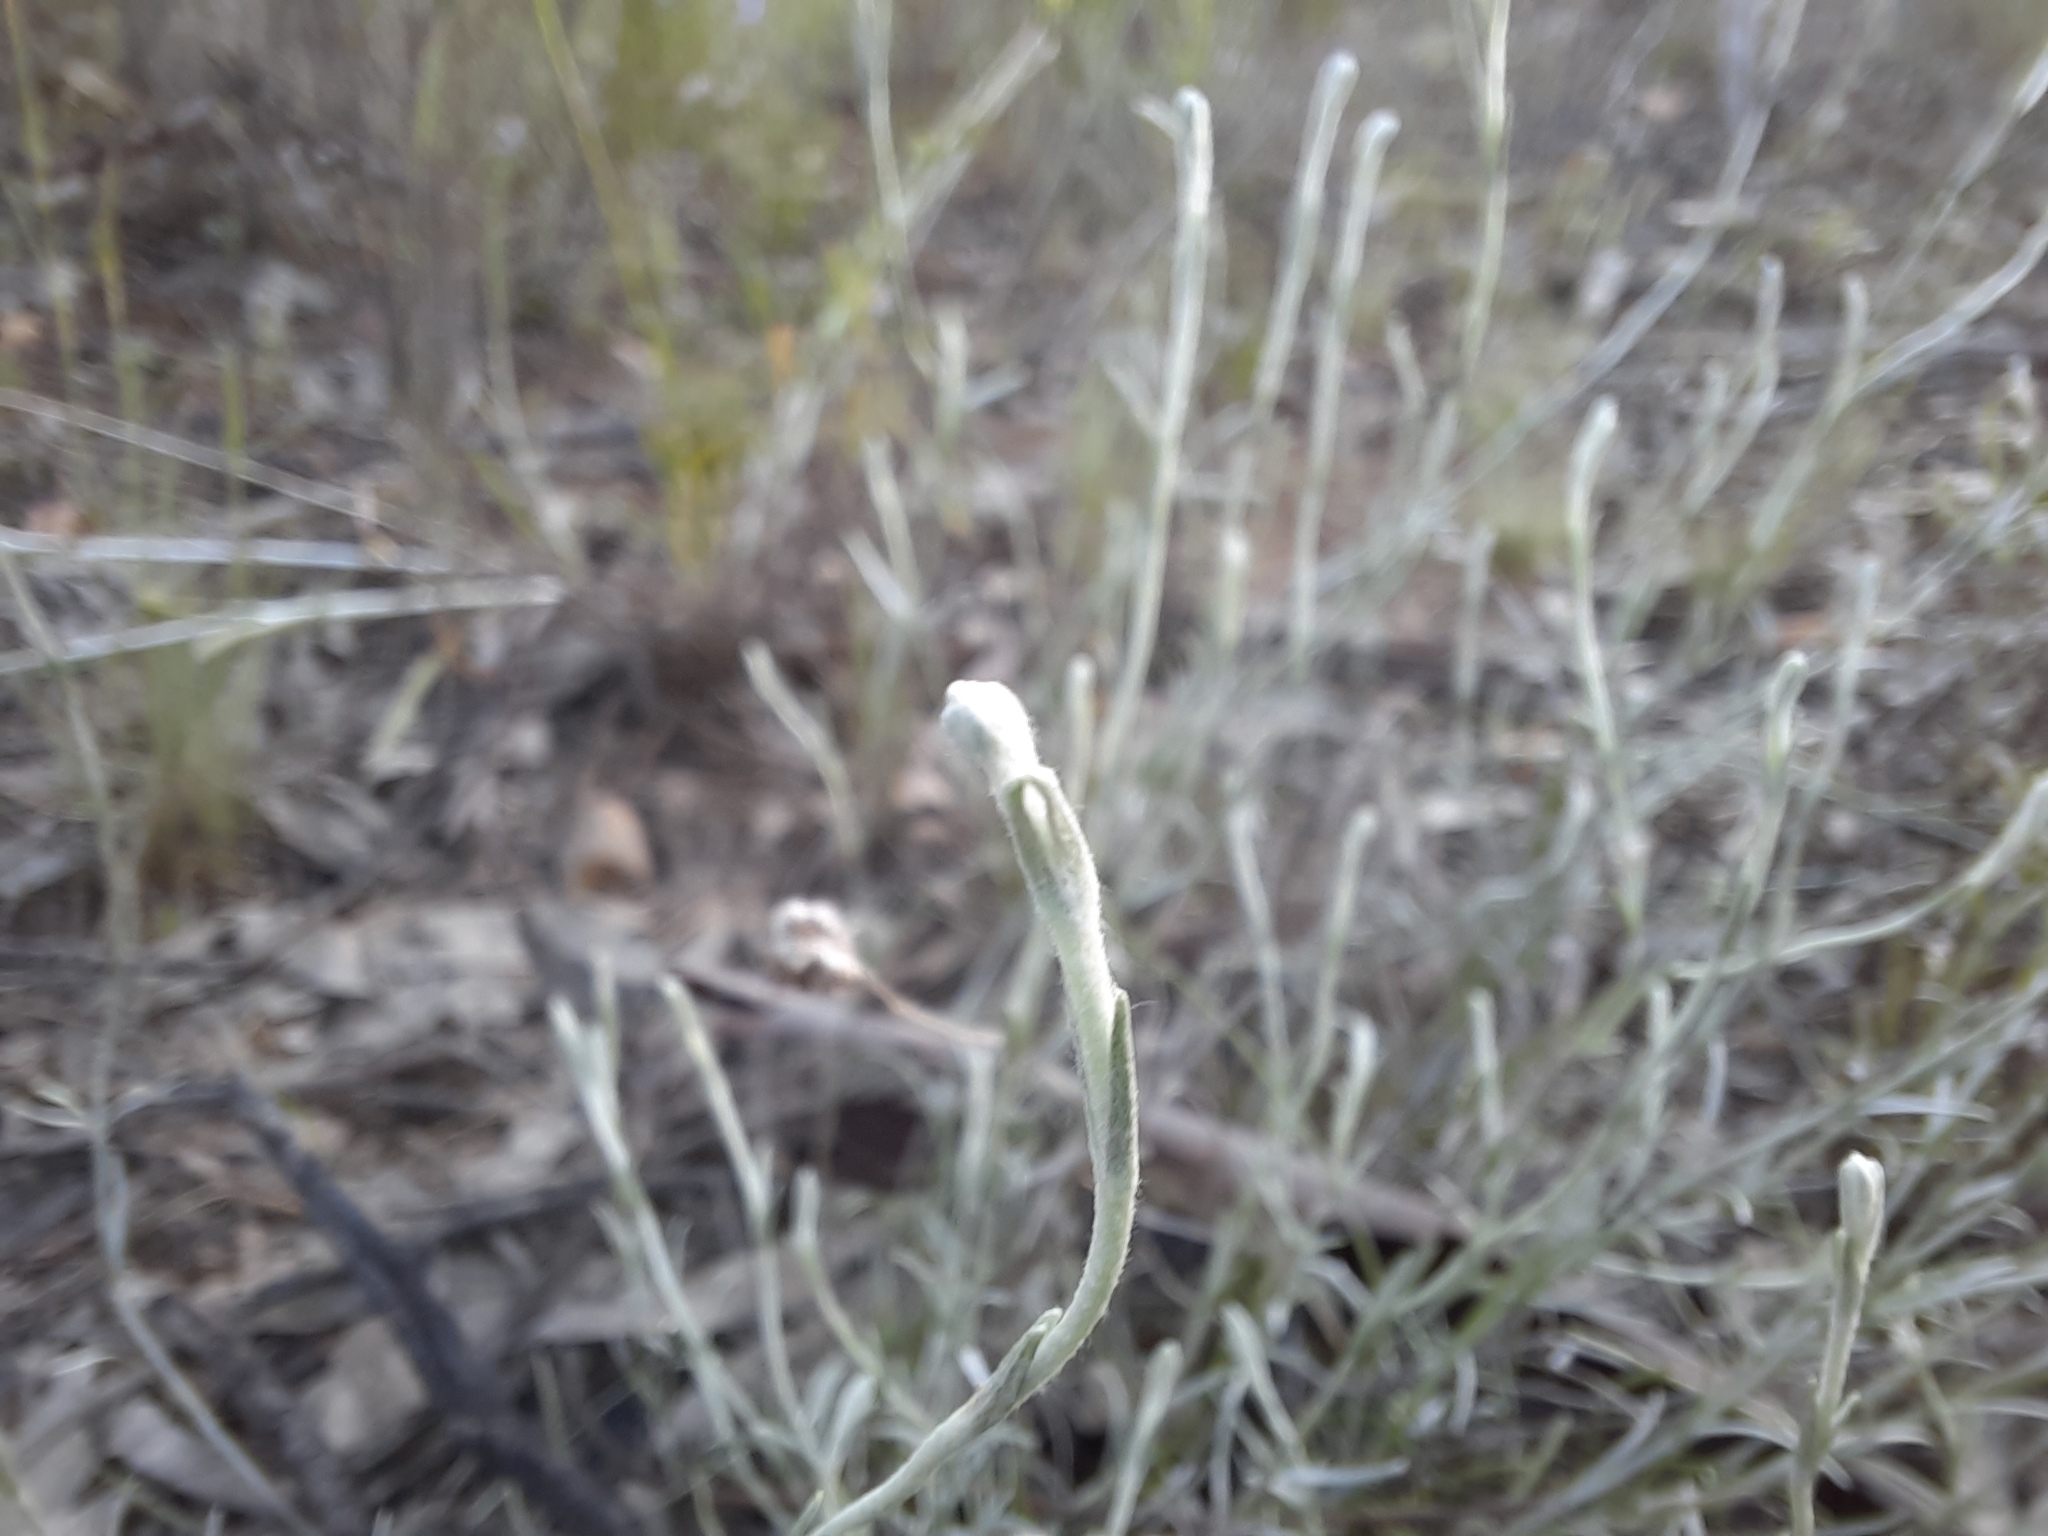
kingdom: Plantae
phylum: Tracheophyta
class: Magnoliopsida
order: Asterales
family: Asteraceae
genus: Calocephalus
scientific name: Calocephalus citreus
